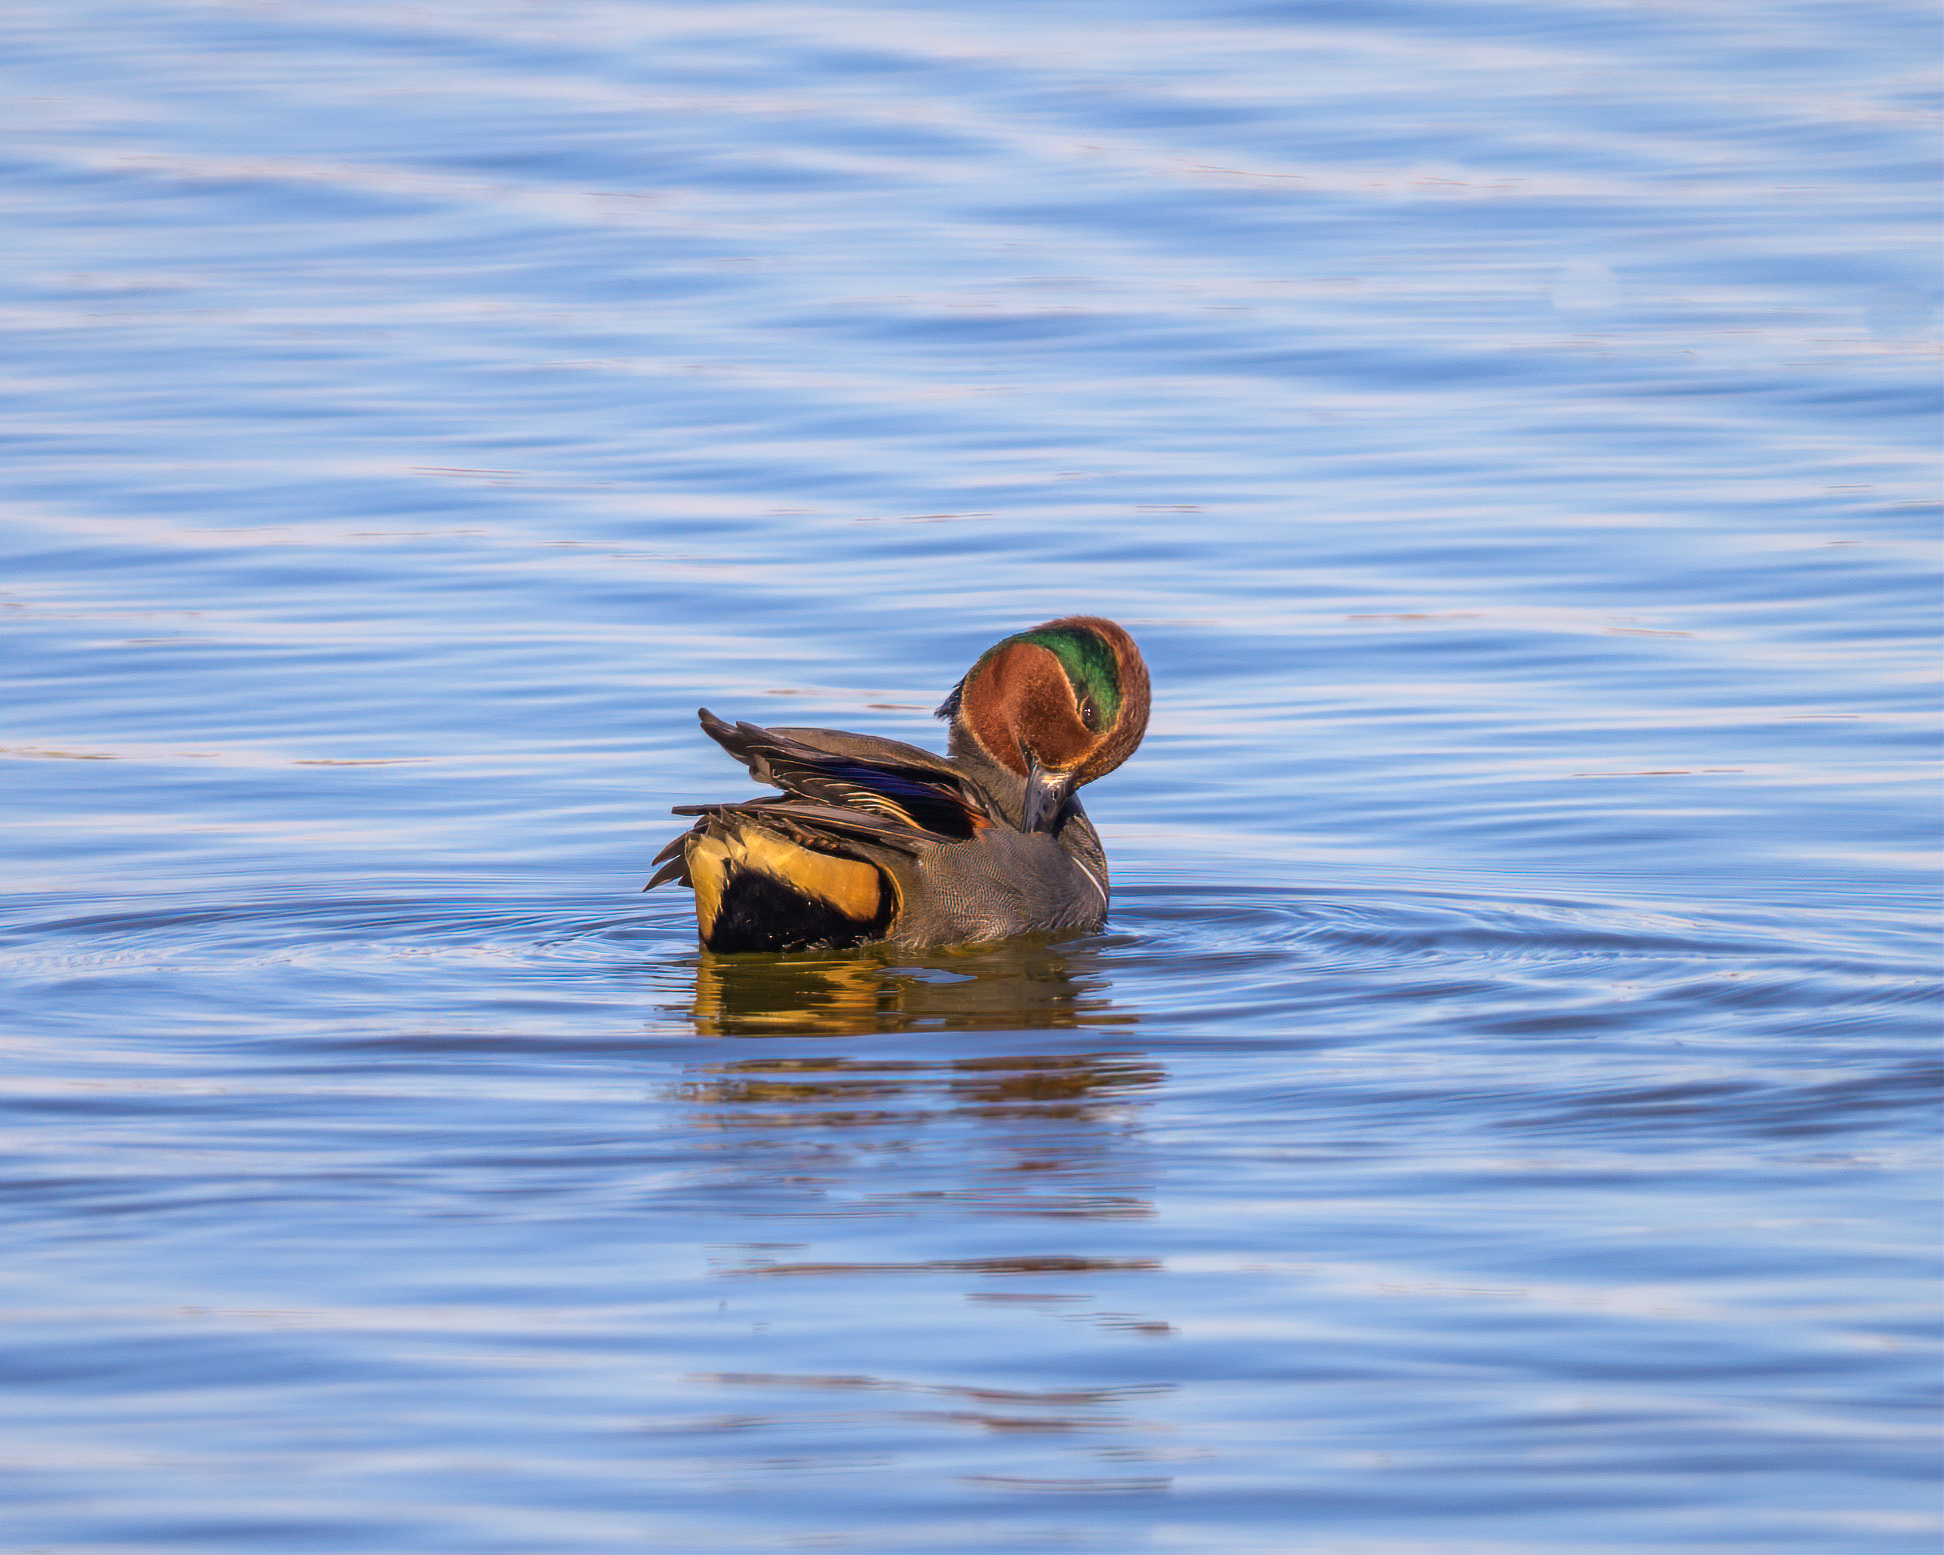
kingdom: Animalia
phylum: Chordata
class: Aves
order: Anseriformes
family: Anatidae
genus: Anas
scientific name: Anas crecca
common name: Eurasian teal
